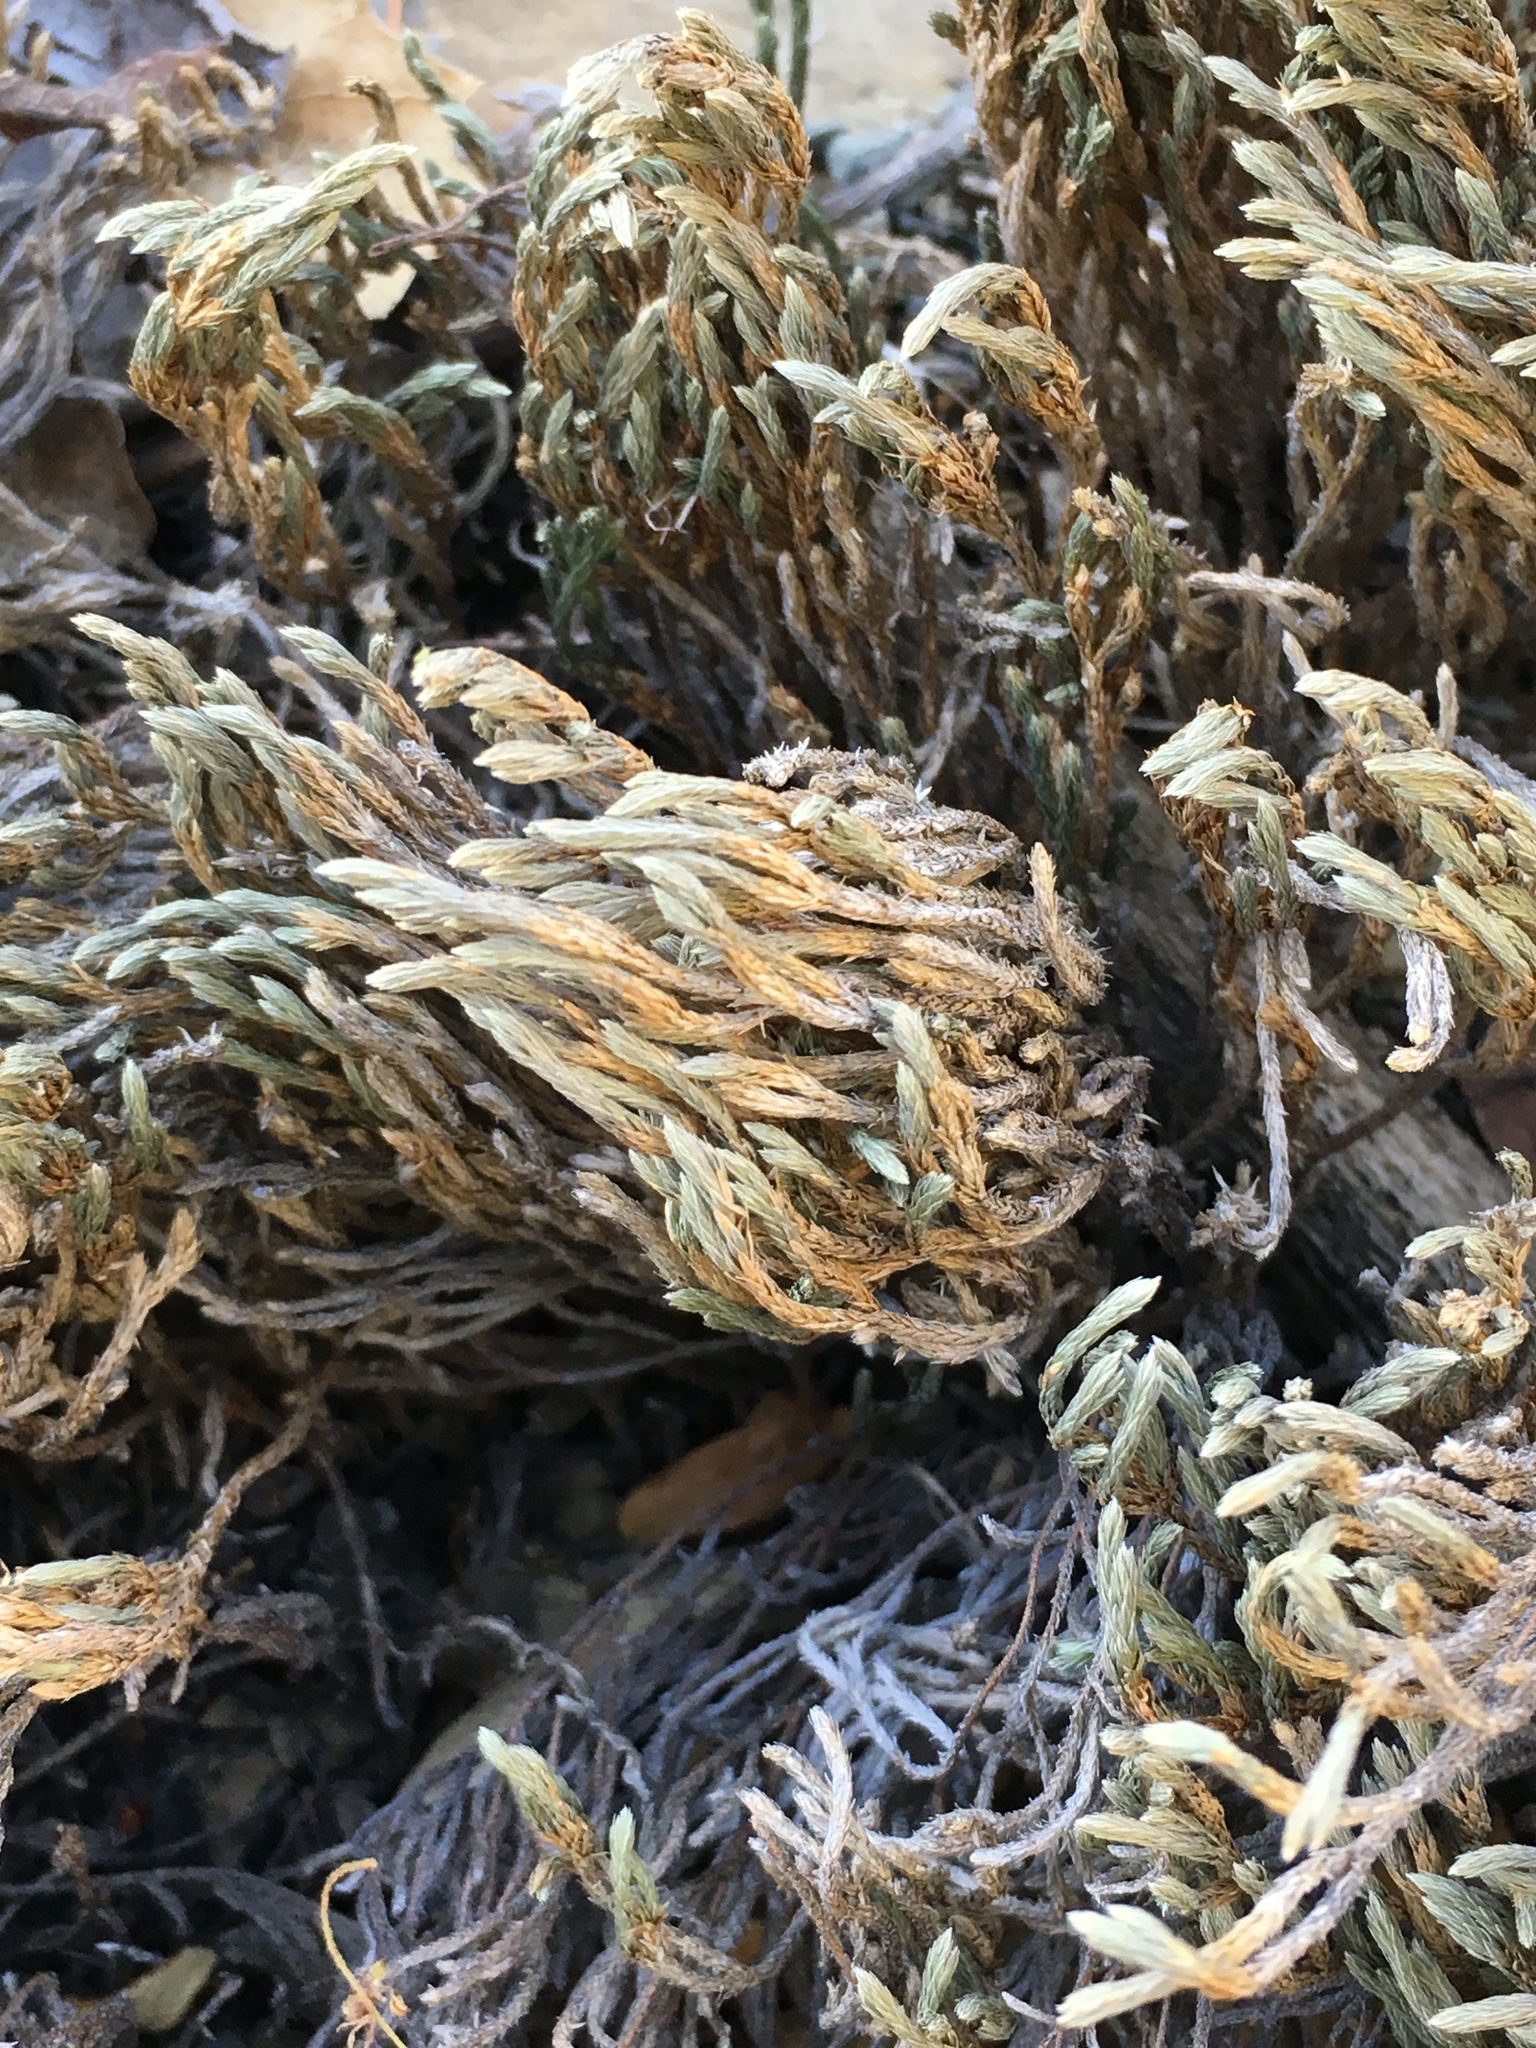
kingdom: Plantae
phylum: Tracheophyta
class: Lycopodiopsida
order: Selaginellales
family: Selaginellaceae
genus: Selaginella
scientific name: Selaginella bigelovii
